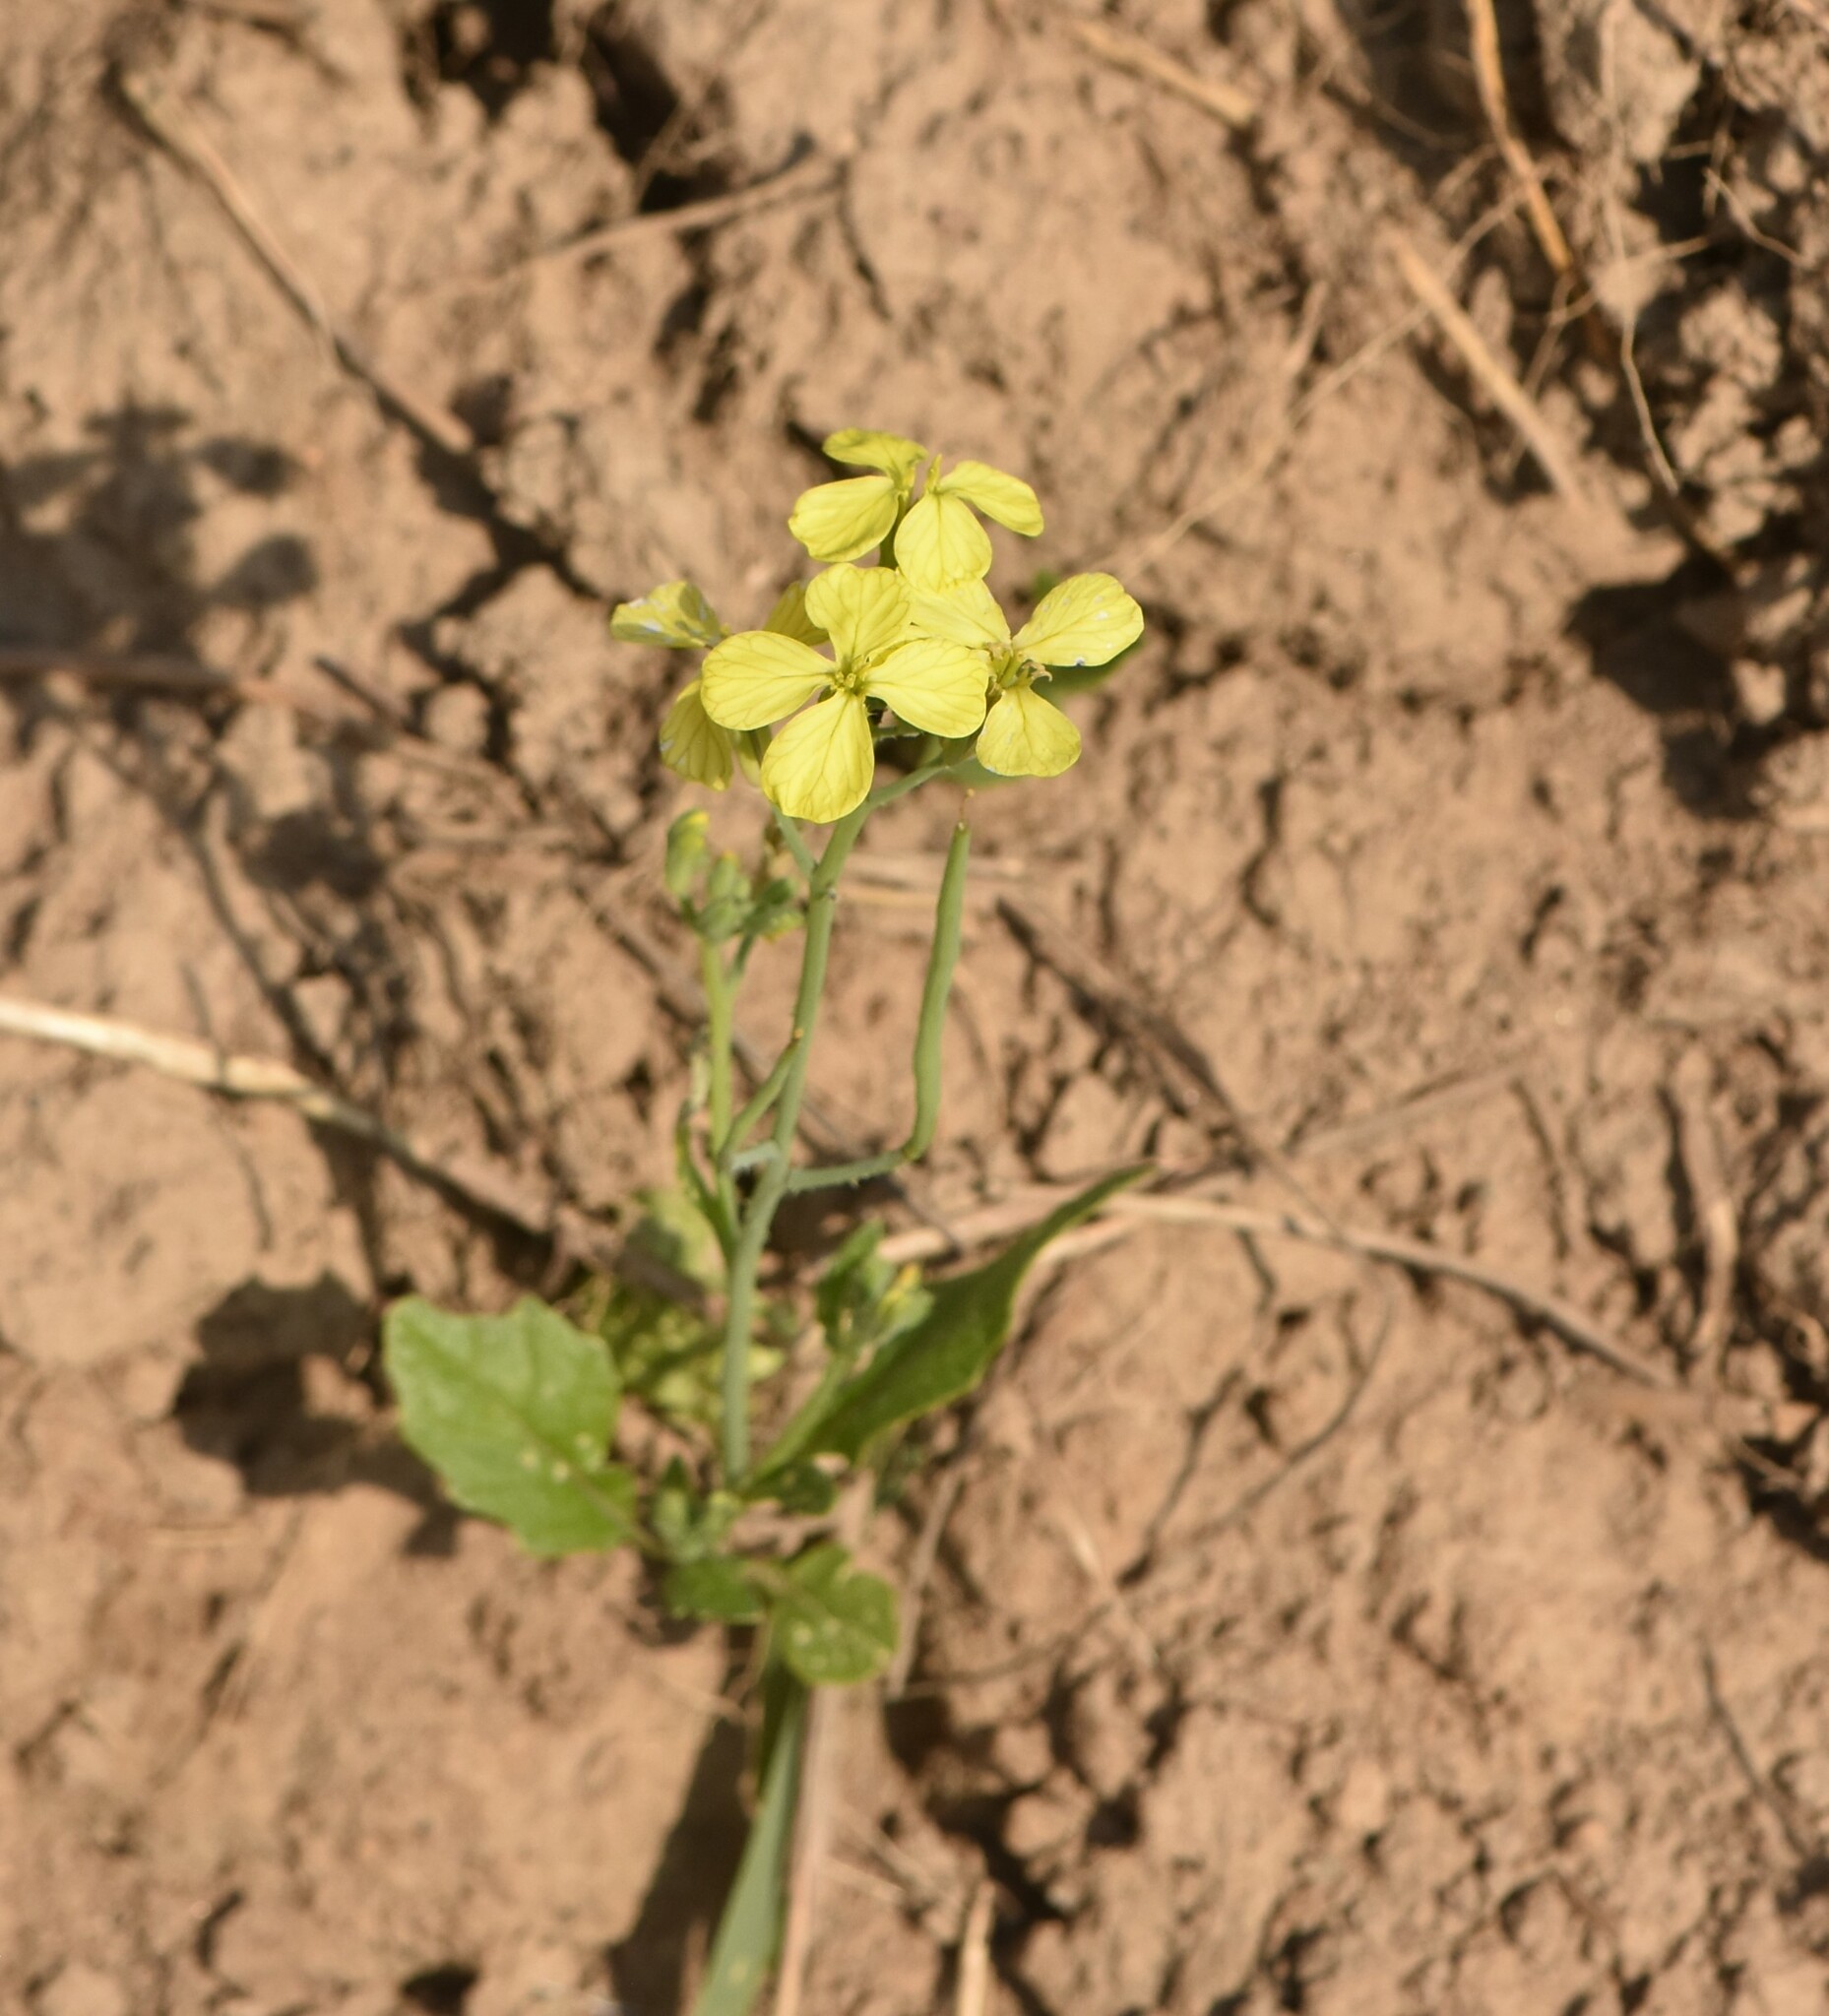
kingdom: Plantae
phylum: Tracheophyta
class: Magnoliopsida
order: Brassicales
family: Brassicaceae
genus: Raphanus
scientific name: Raphanus raphanistrum
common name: Wild radish
